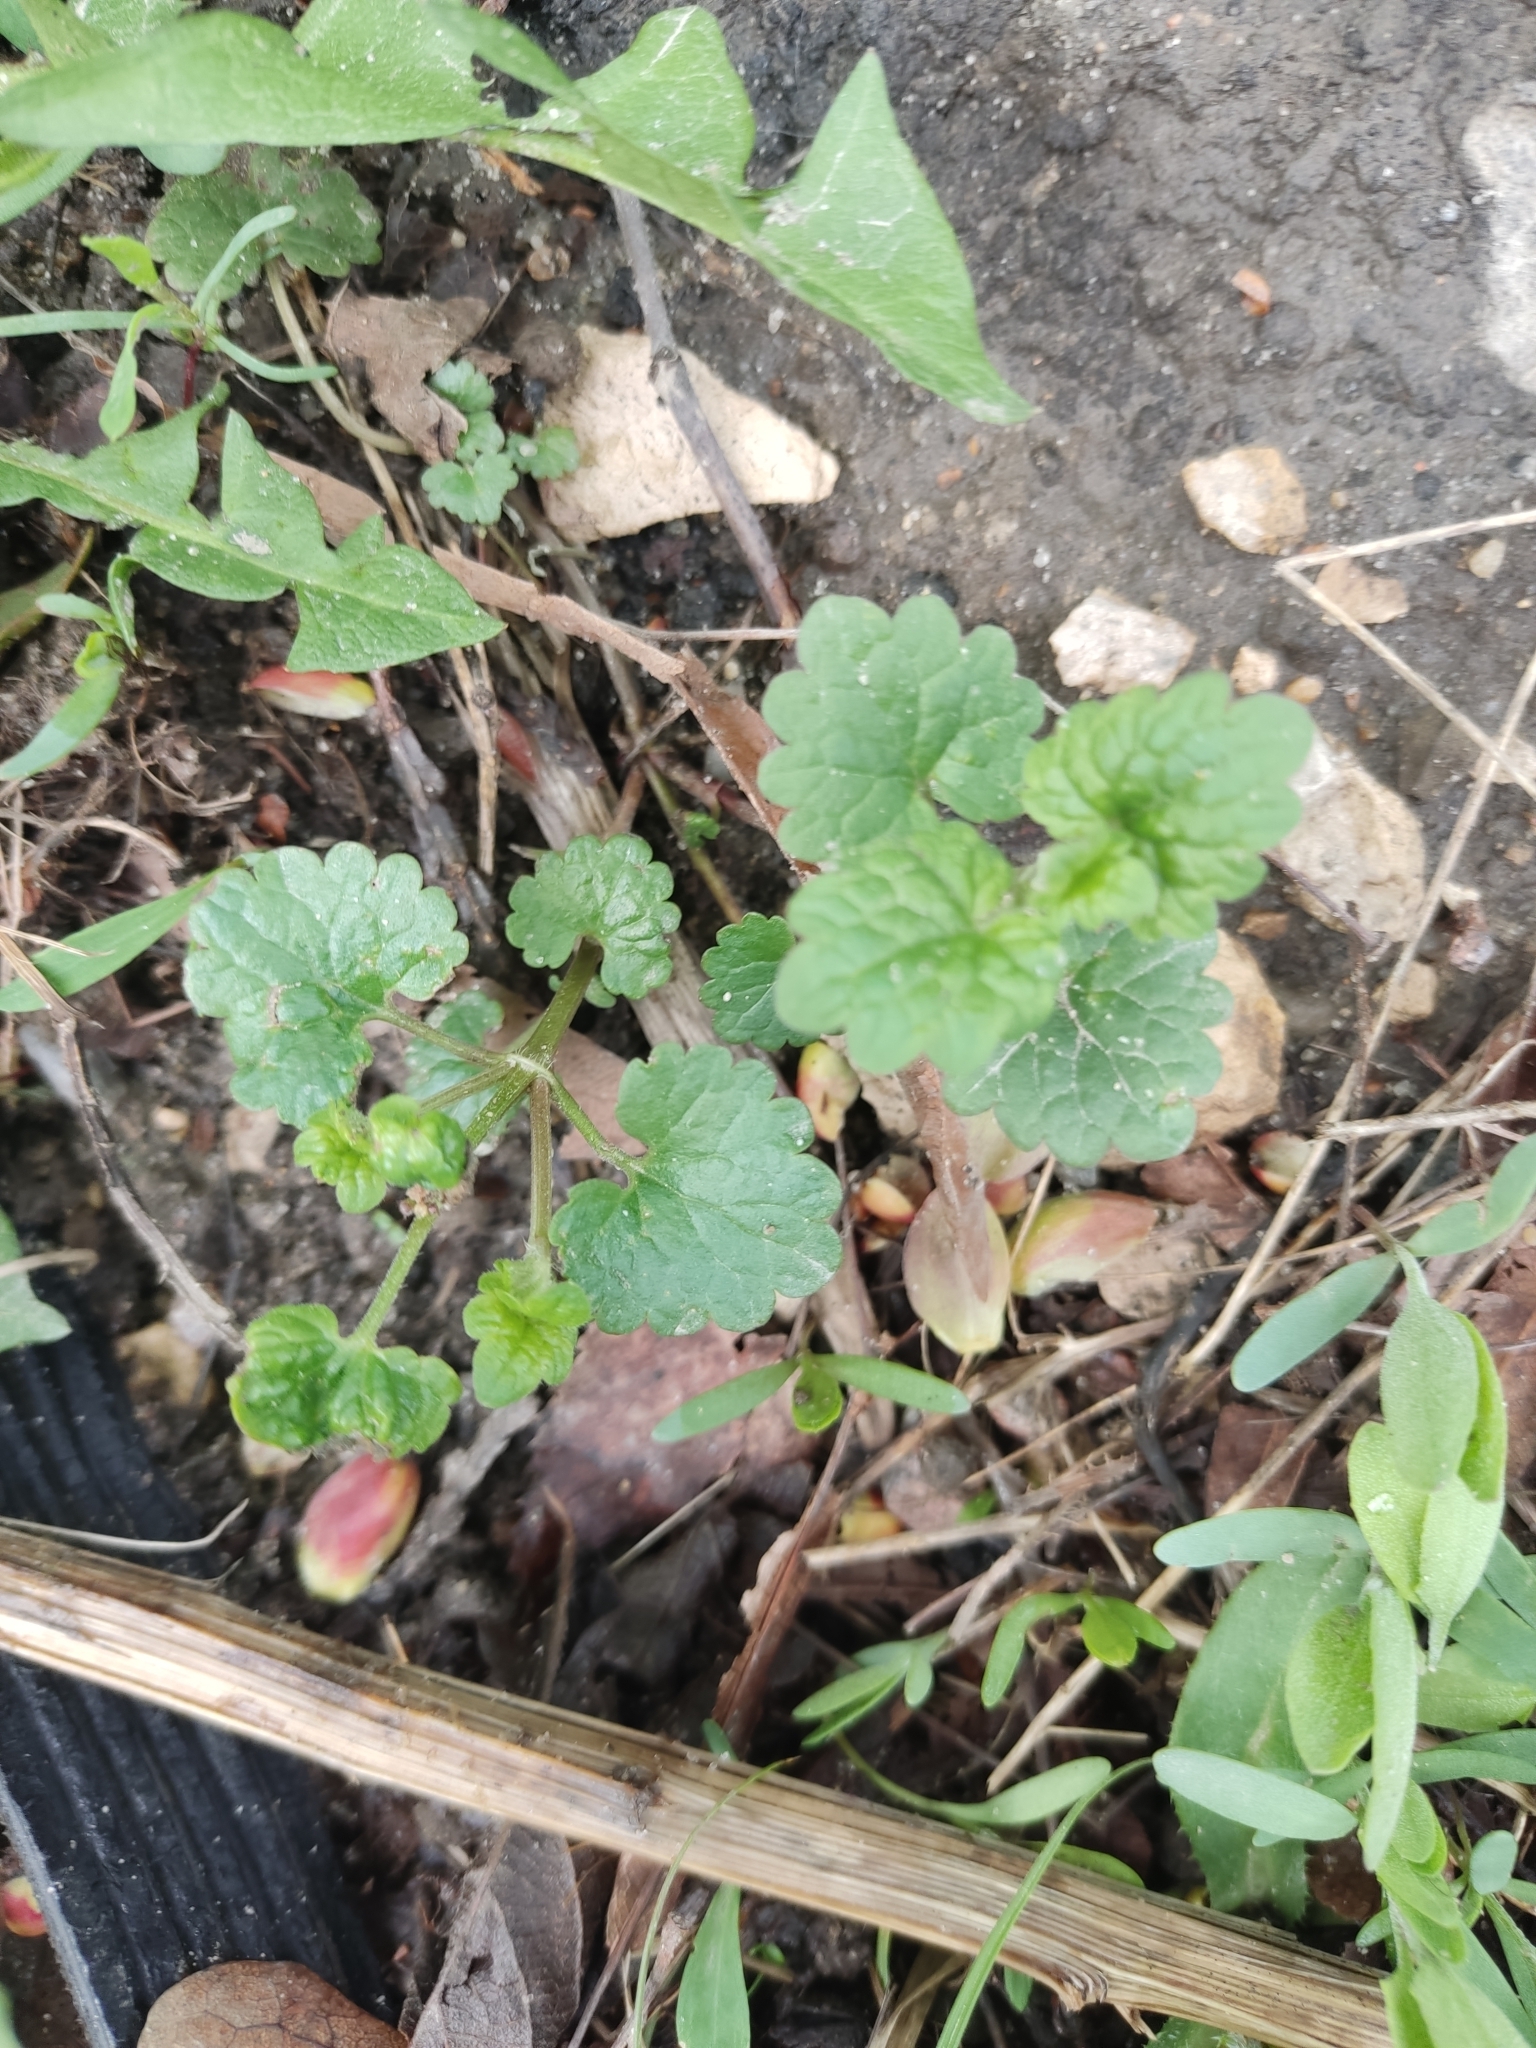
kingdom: Plantae
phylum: Tracheophyta
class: Magnoliopsida
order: Lamiales
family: Lamiaceae
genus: Glechoma
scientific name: Glechoma hederacea
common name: Ground ivy
